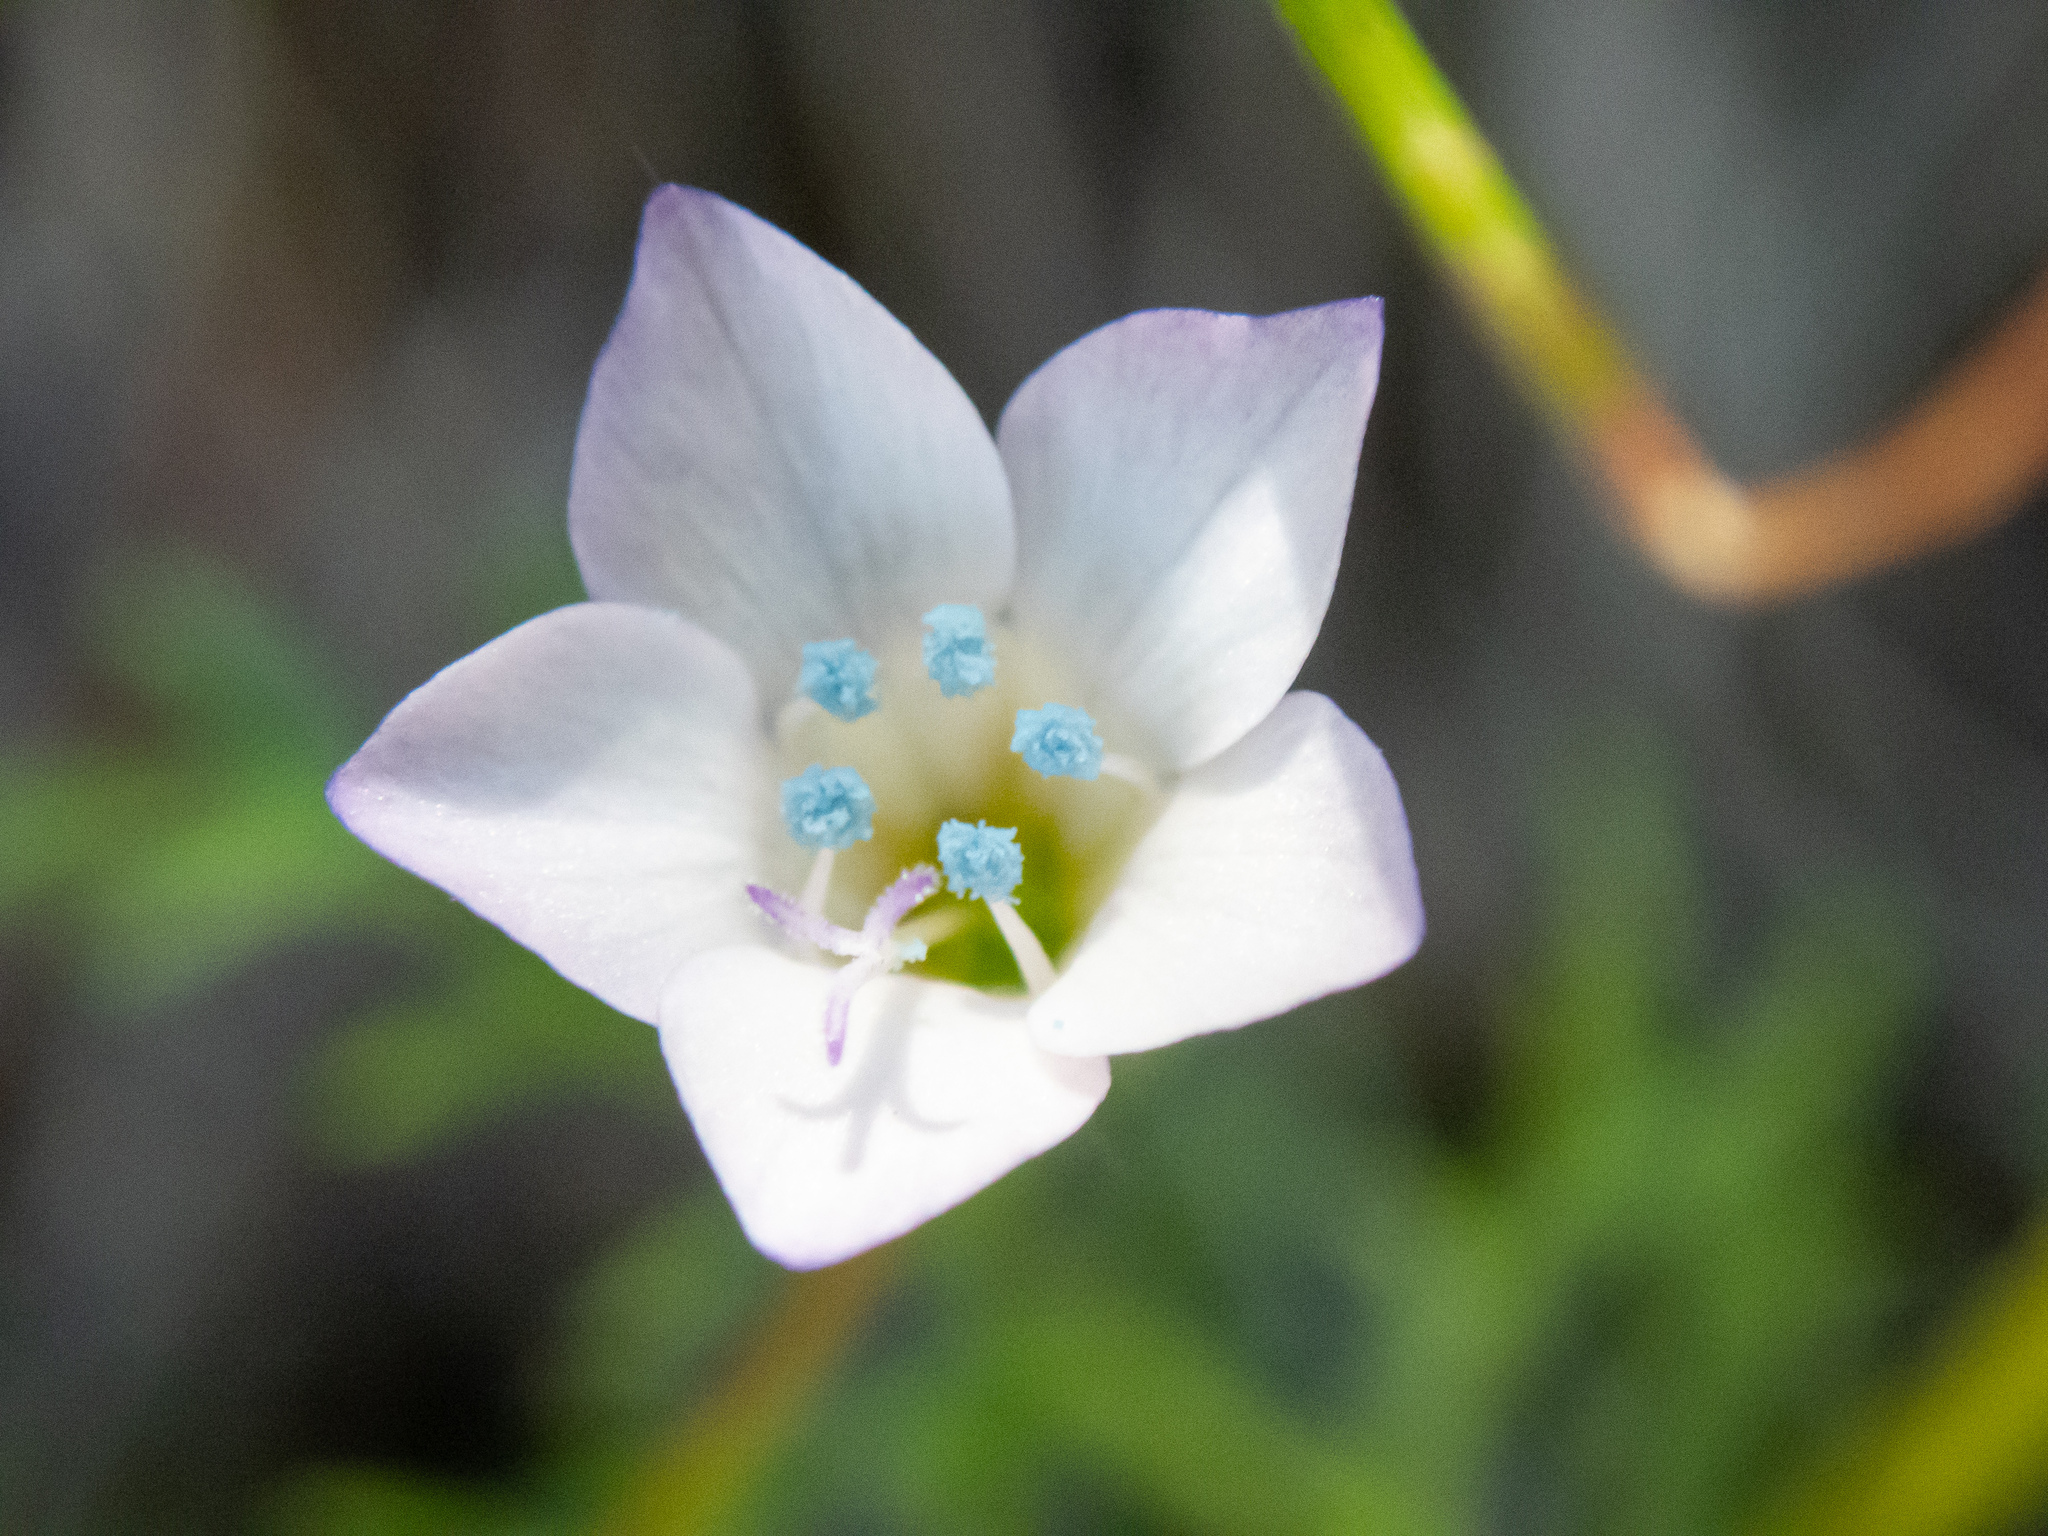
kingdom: Plantae
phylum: Tracheophyta
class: Magnoliopsida
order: Ericales
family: Polemoniaceae
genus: Gilia
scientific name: Gilia angelensis
